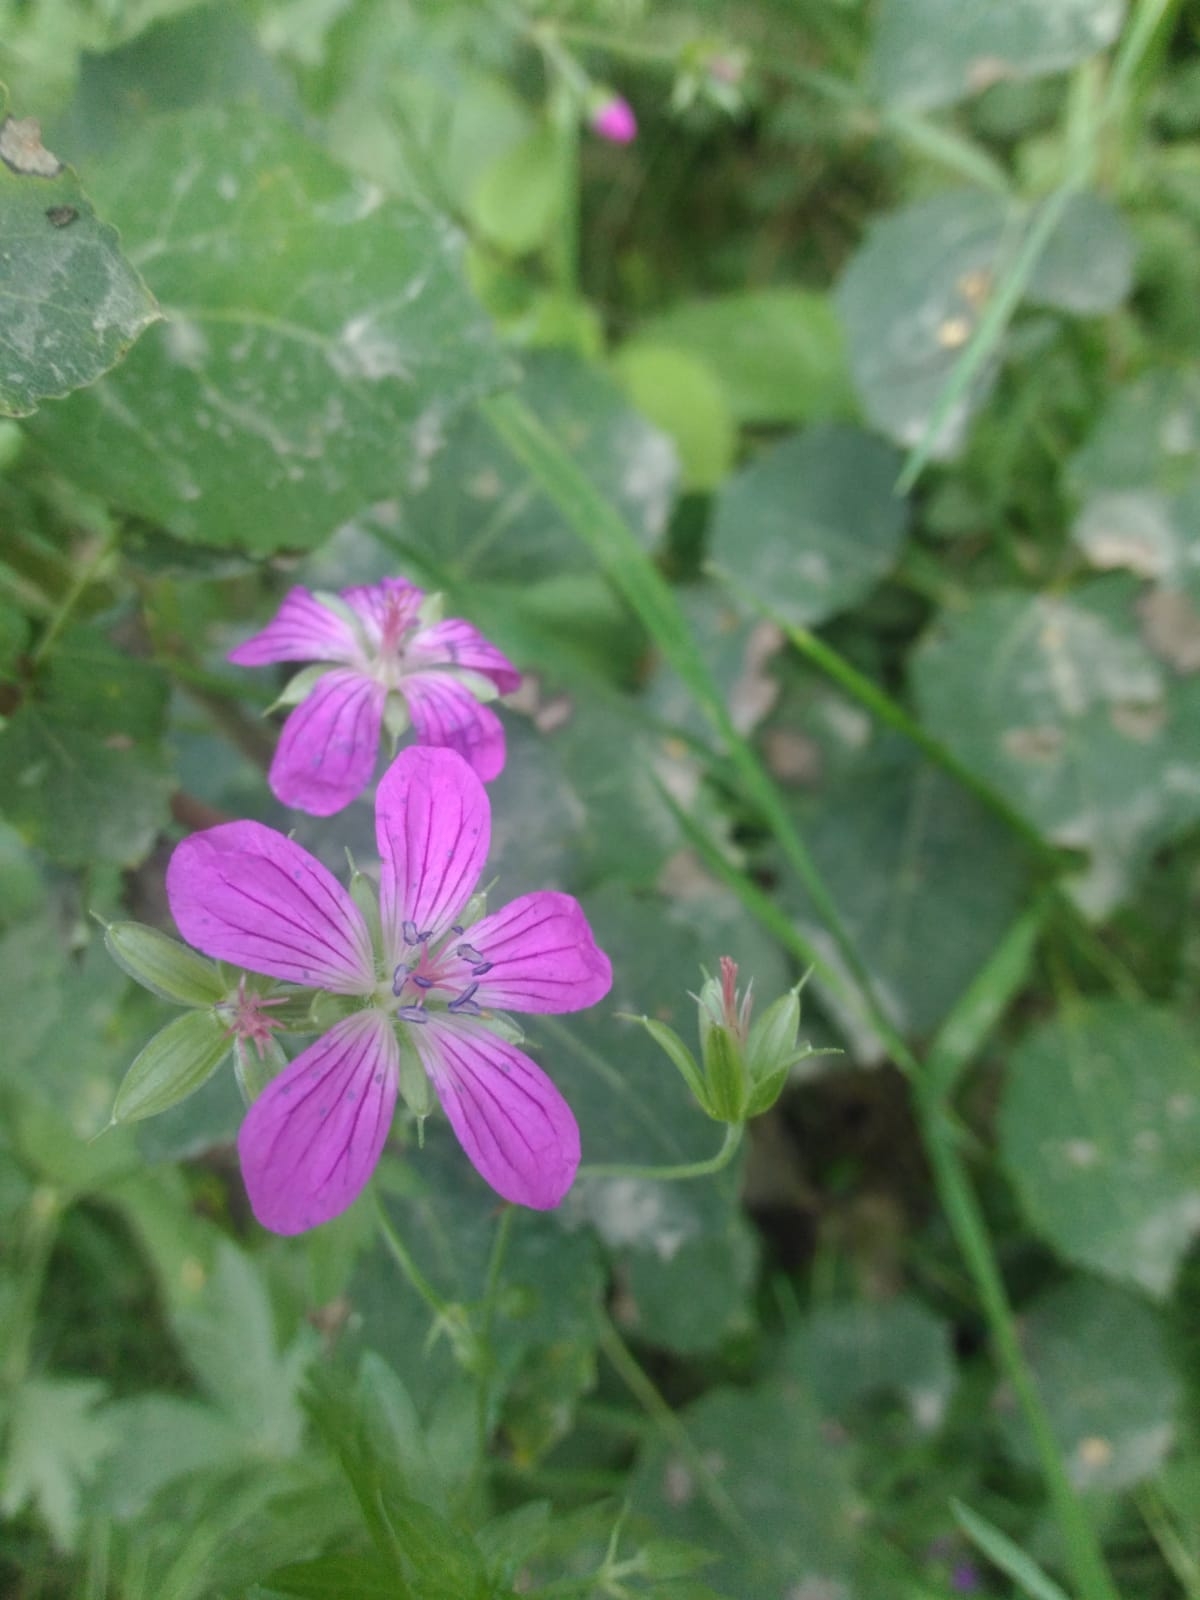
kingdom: Plantae
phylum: Tracheophyta
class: Magnoliopsida
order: Geraniales
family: Geraniaceae
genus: Geranium
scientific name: Geranium palustre
